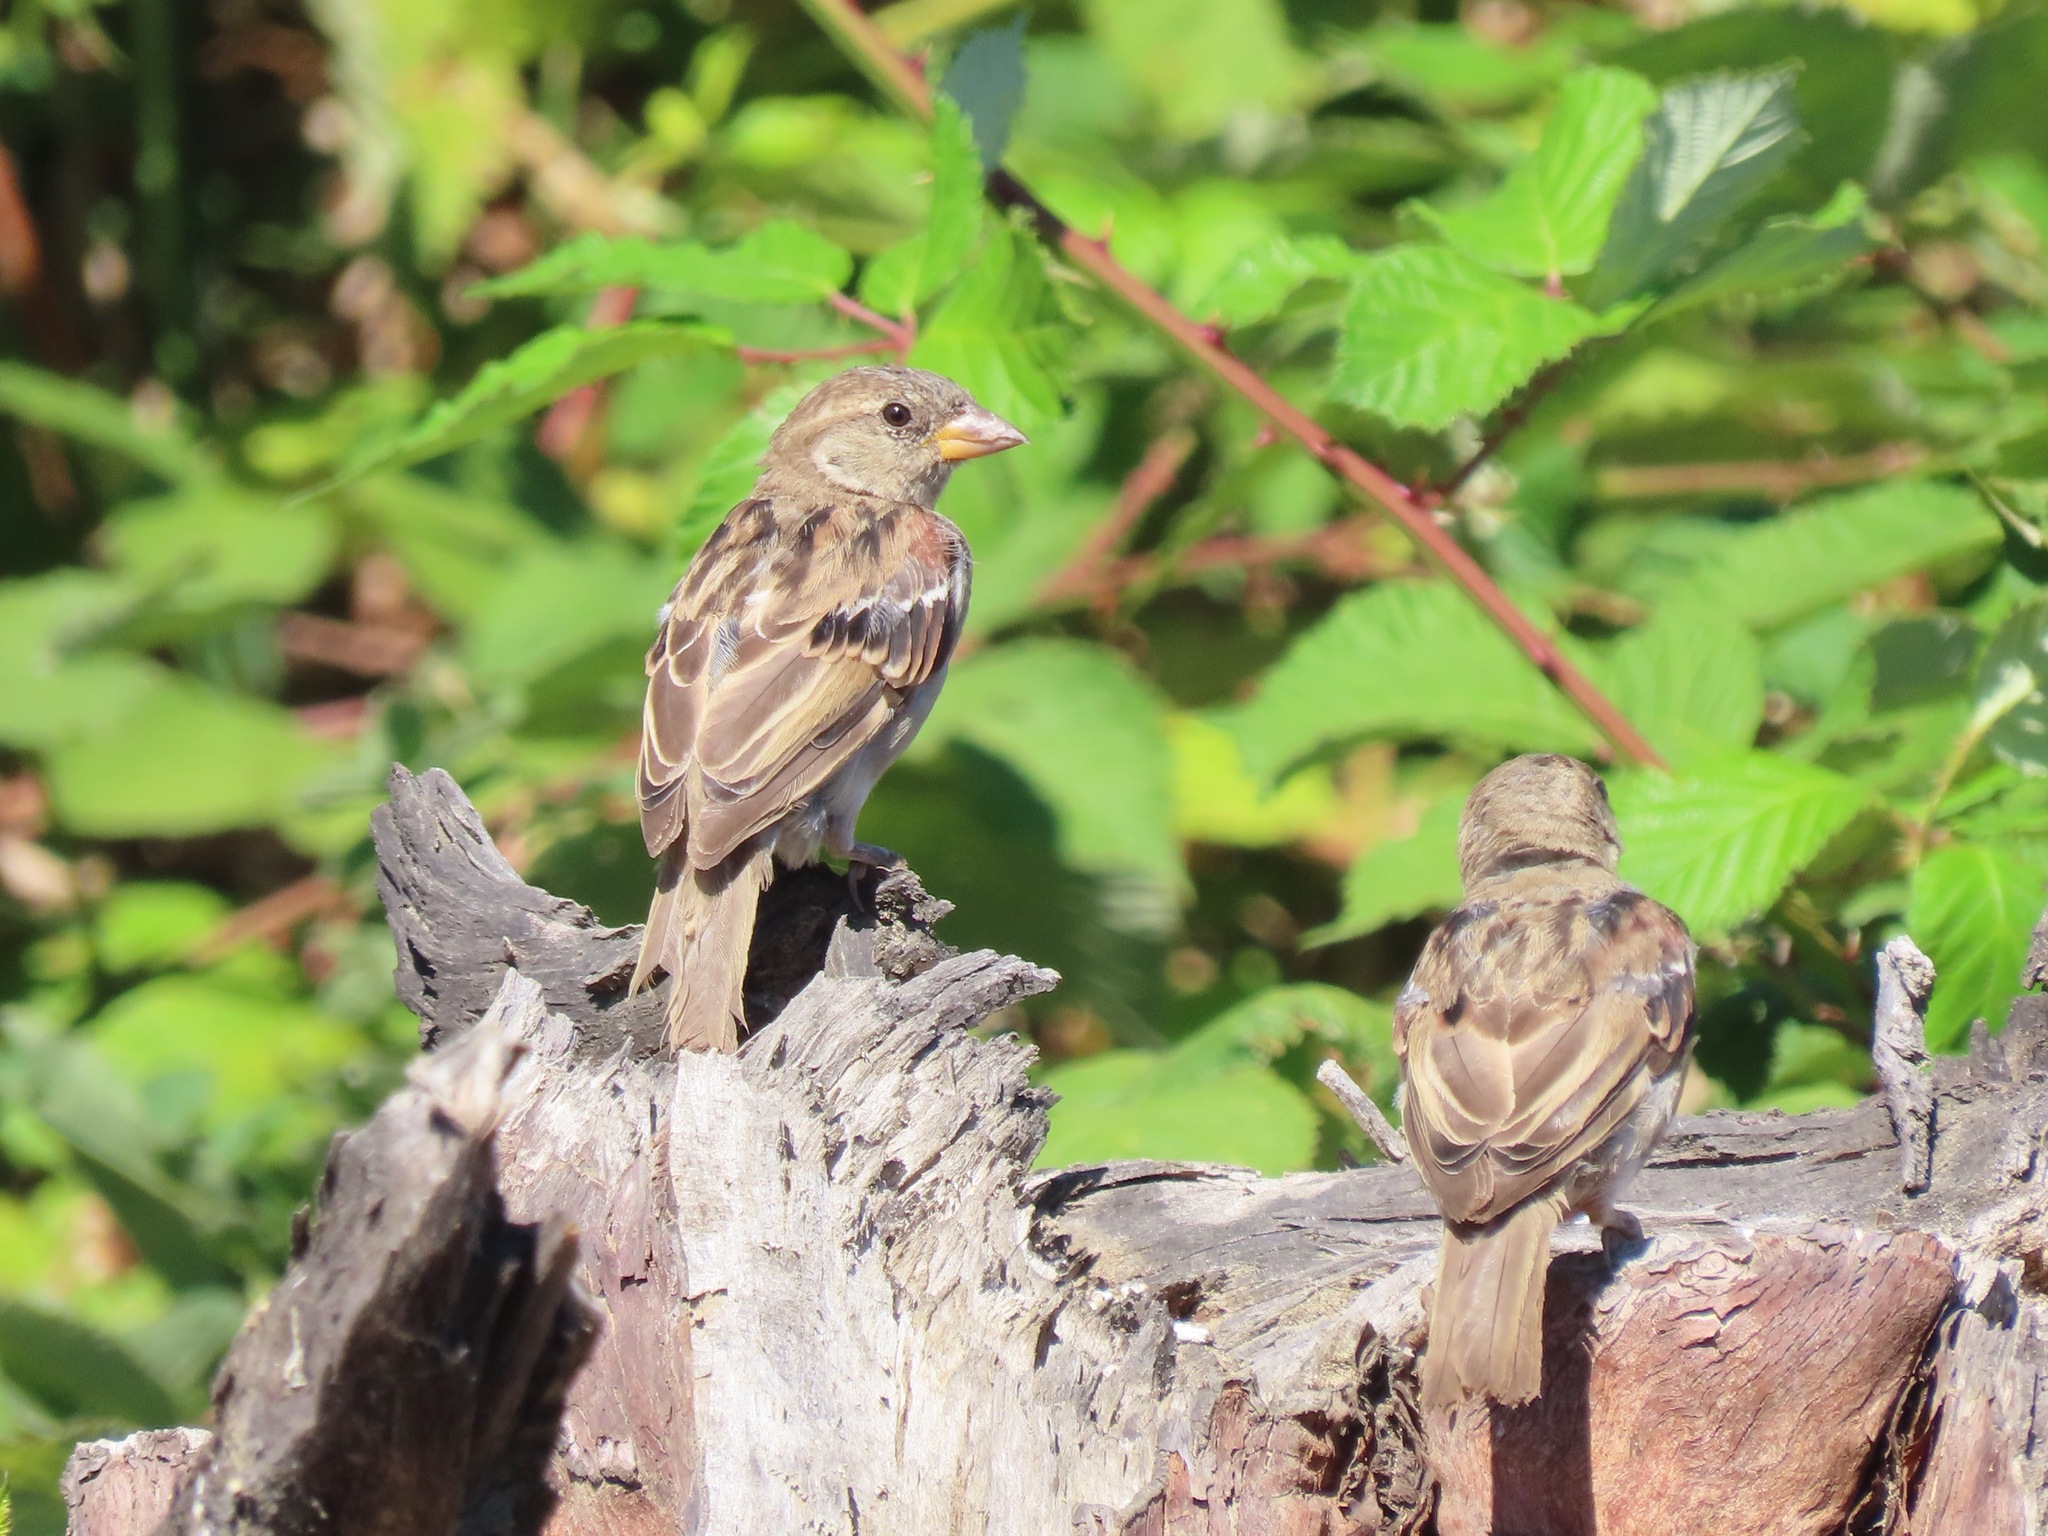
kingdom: Animalia
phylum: Chordata
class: Aves
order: Passeriformes
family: Passeridae
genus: Passer
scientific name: Passer domesticus
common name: House sparrow
